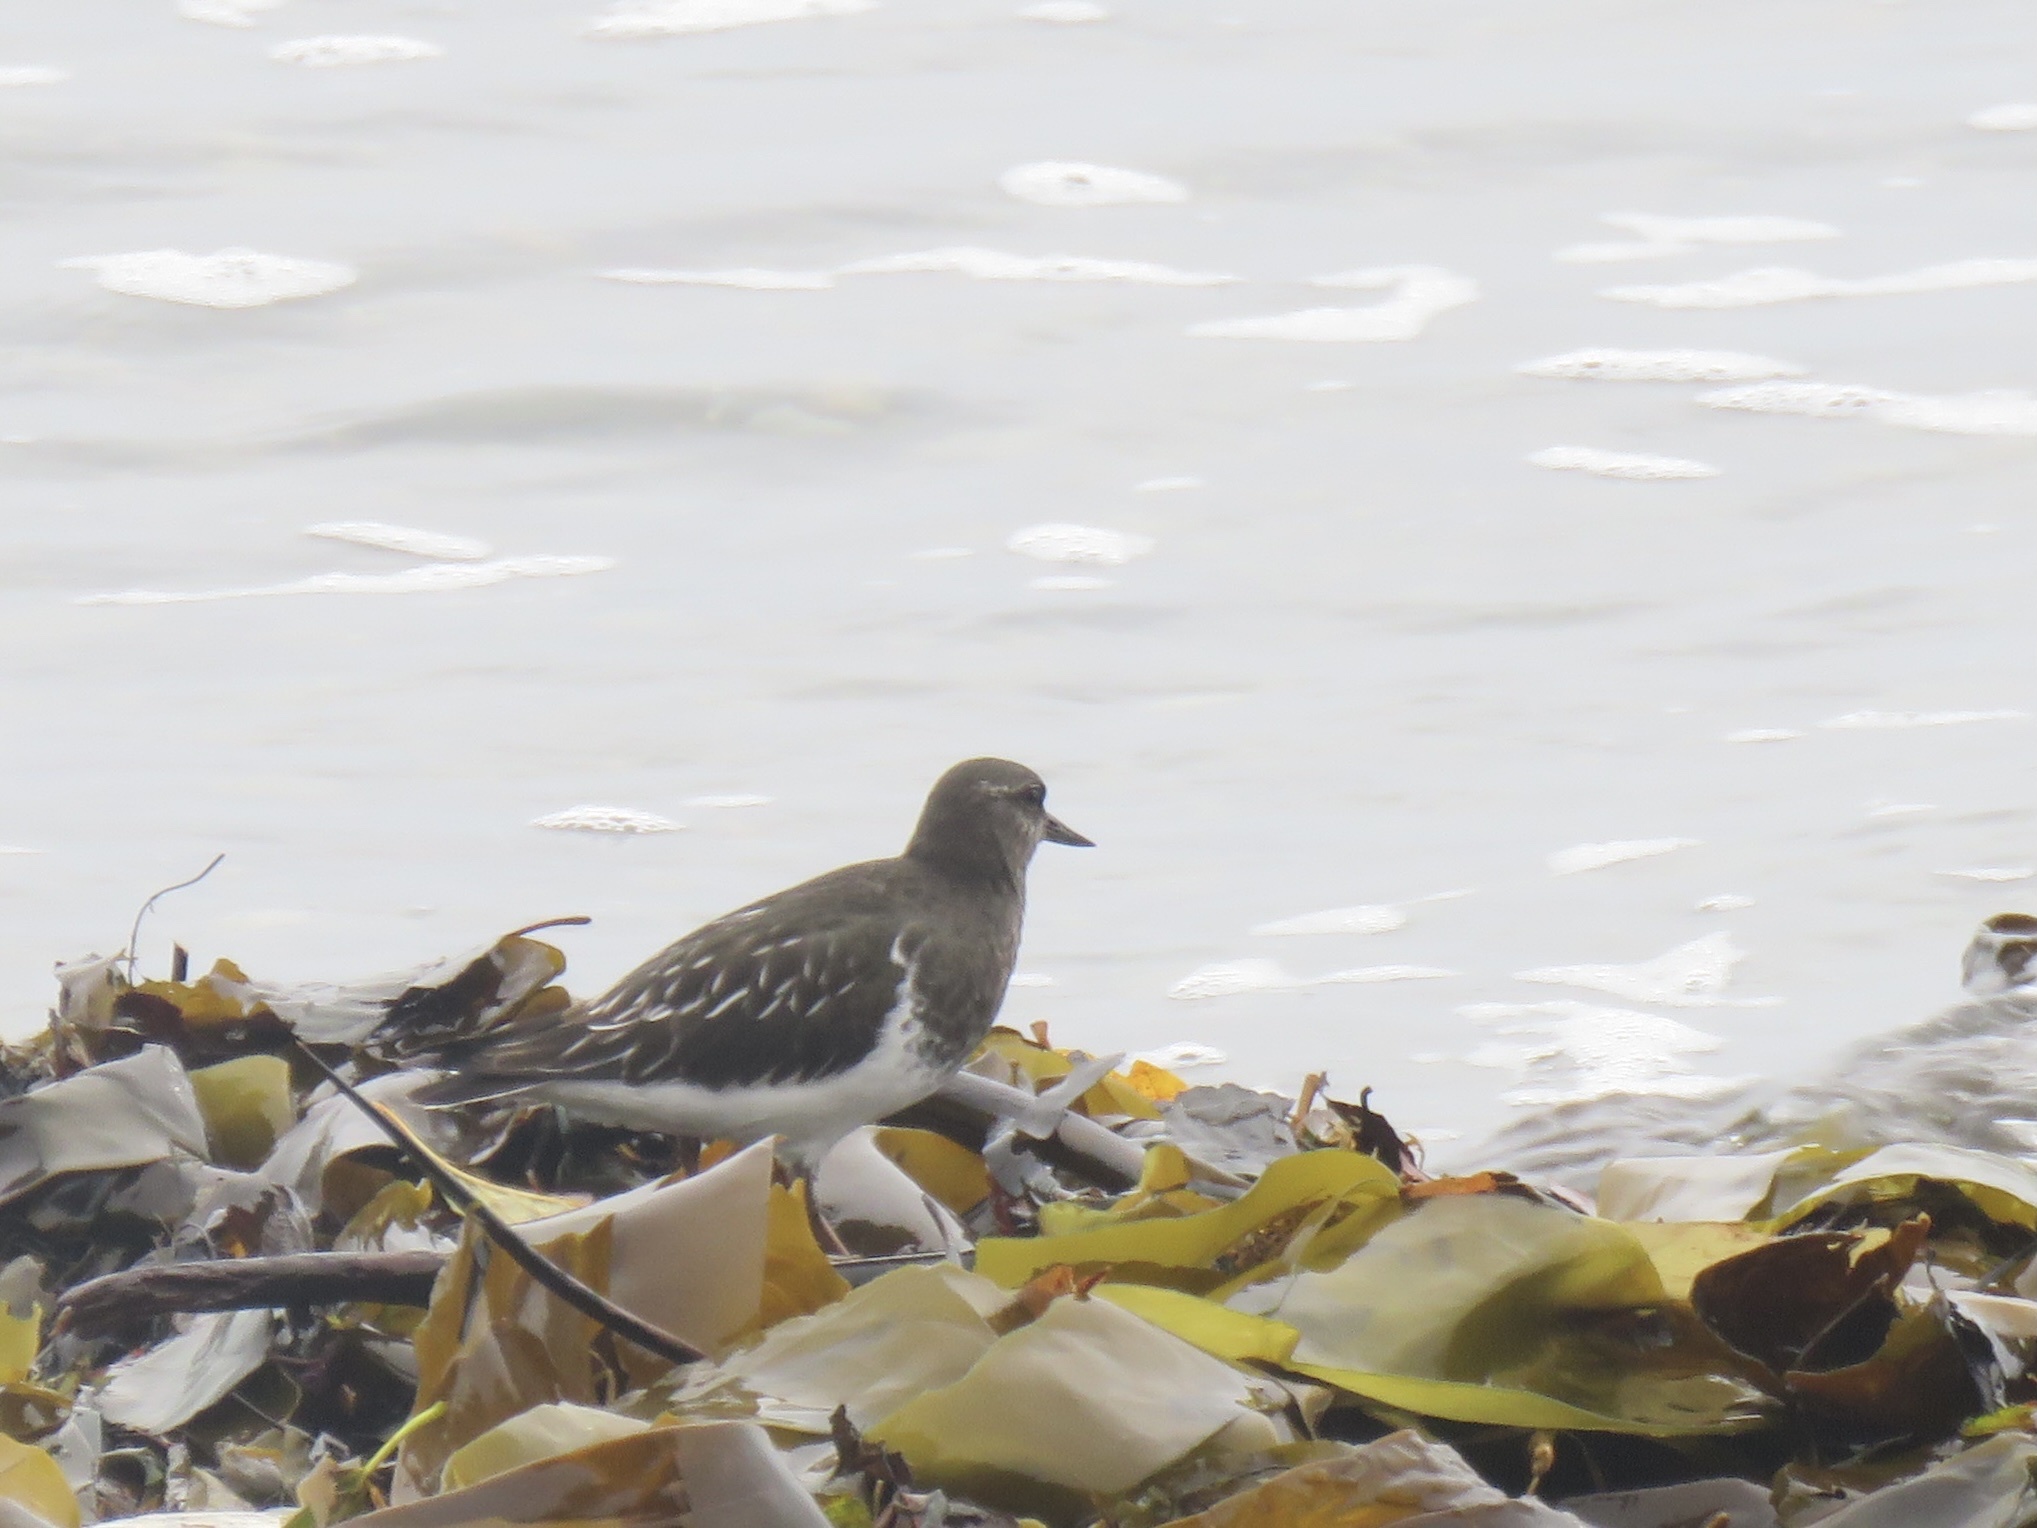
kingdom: Animalia
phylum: Chordata
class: Aves
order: Charadriiformes
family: Scolopacidae
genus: Arenaria
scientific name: Arenaria melanocephala
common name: Black turnstone
